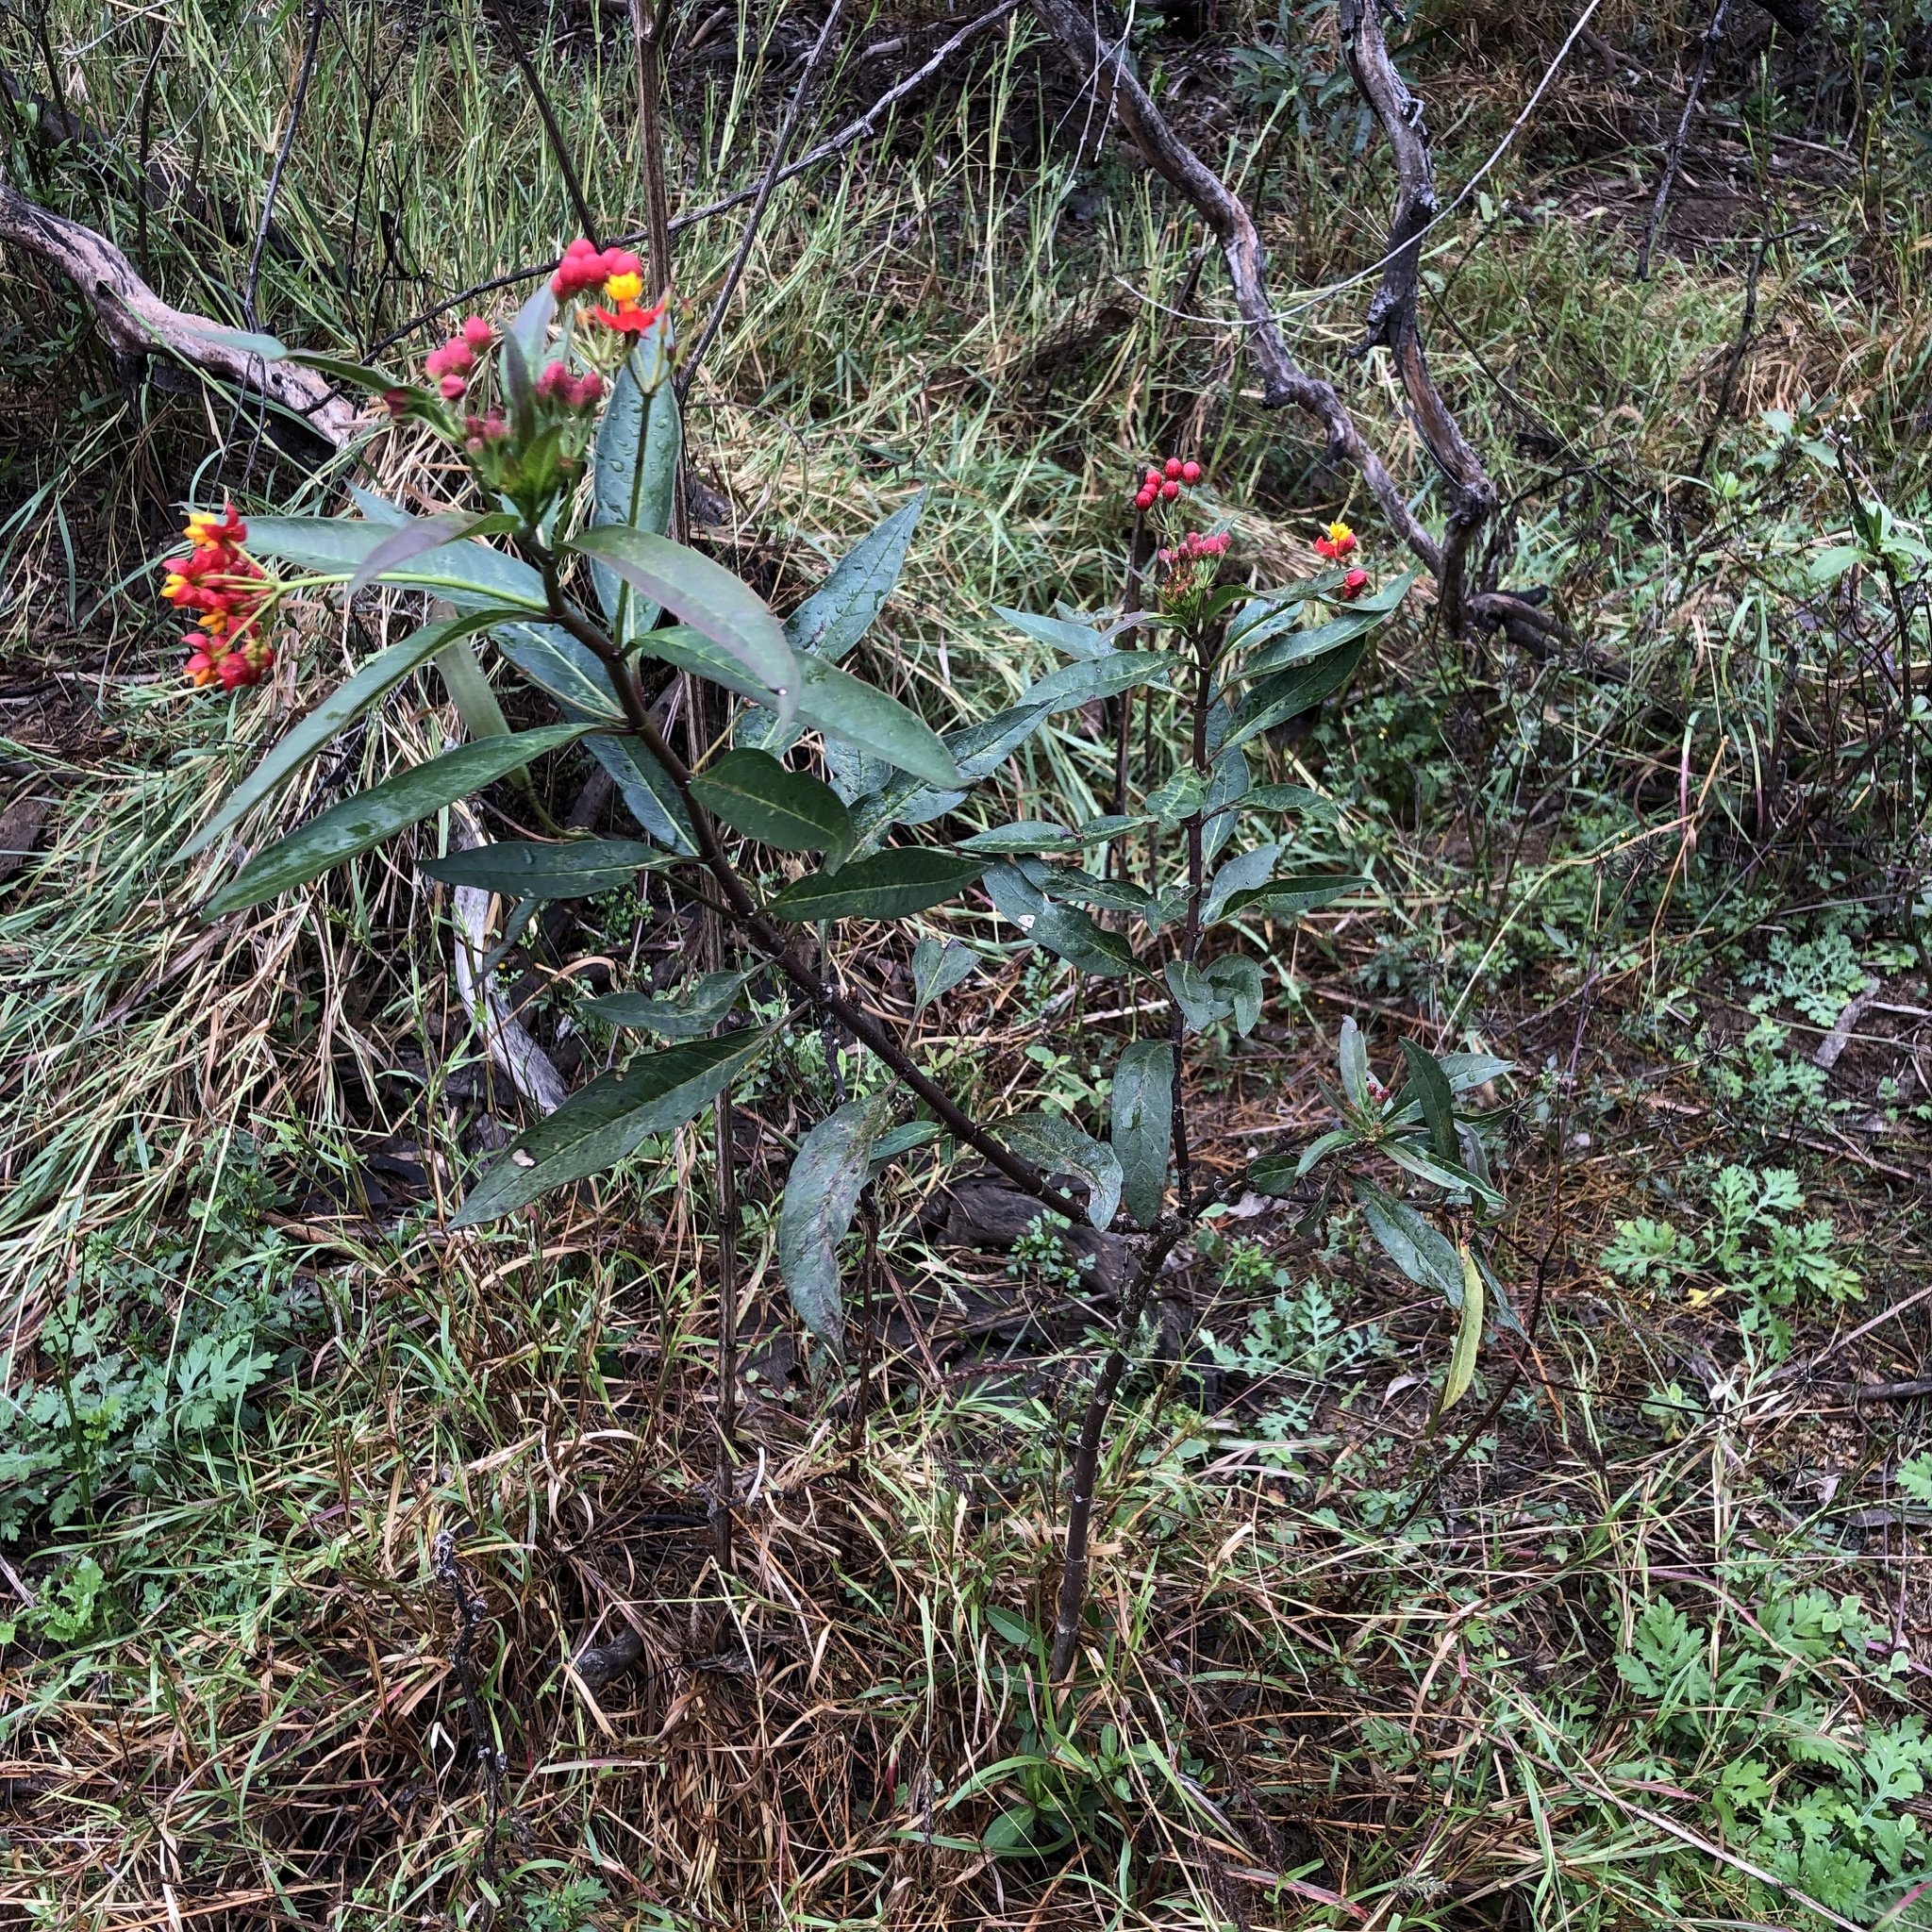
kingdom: Plantae
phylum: Tracheophyta
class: Magnoliopsida
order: Gentianales
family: Apocynaceae
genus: Asclepias
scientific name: Asclepias curassavica
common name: Bloodflower
